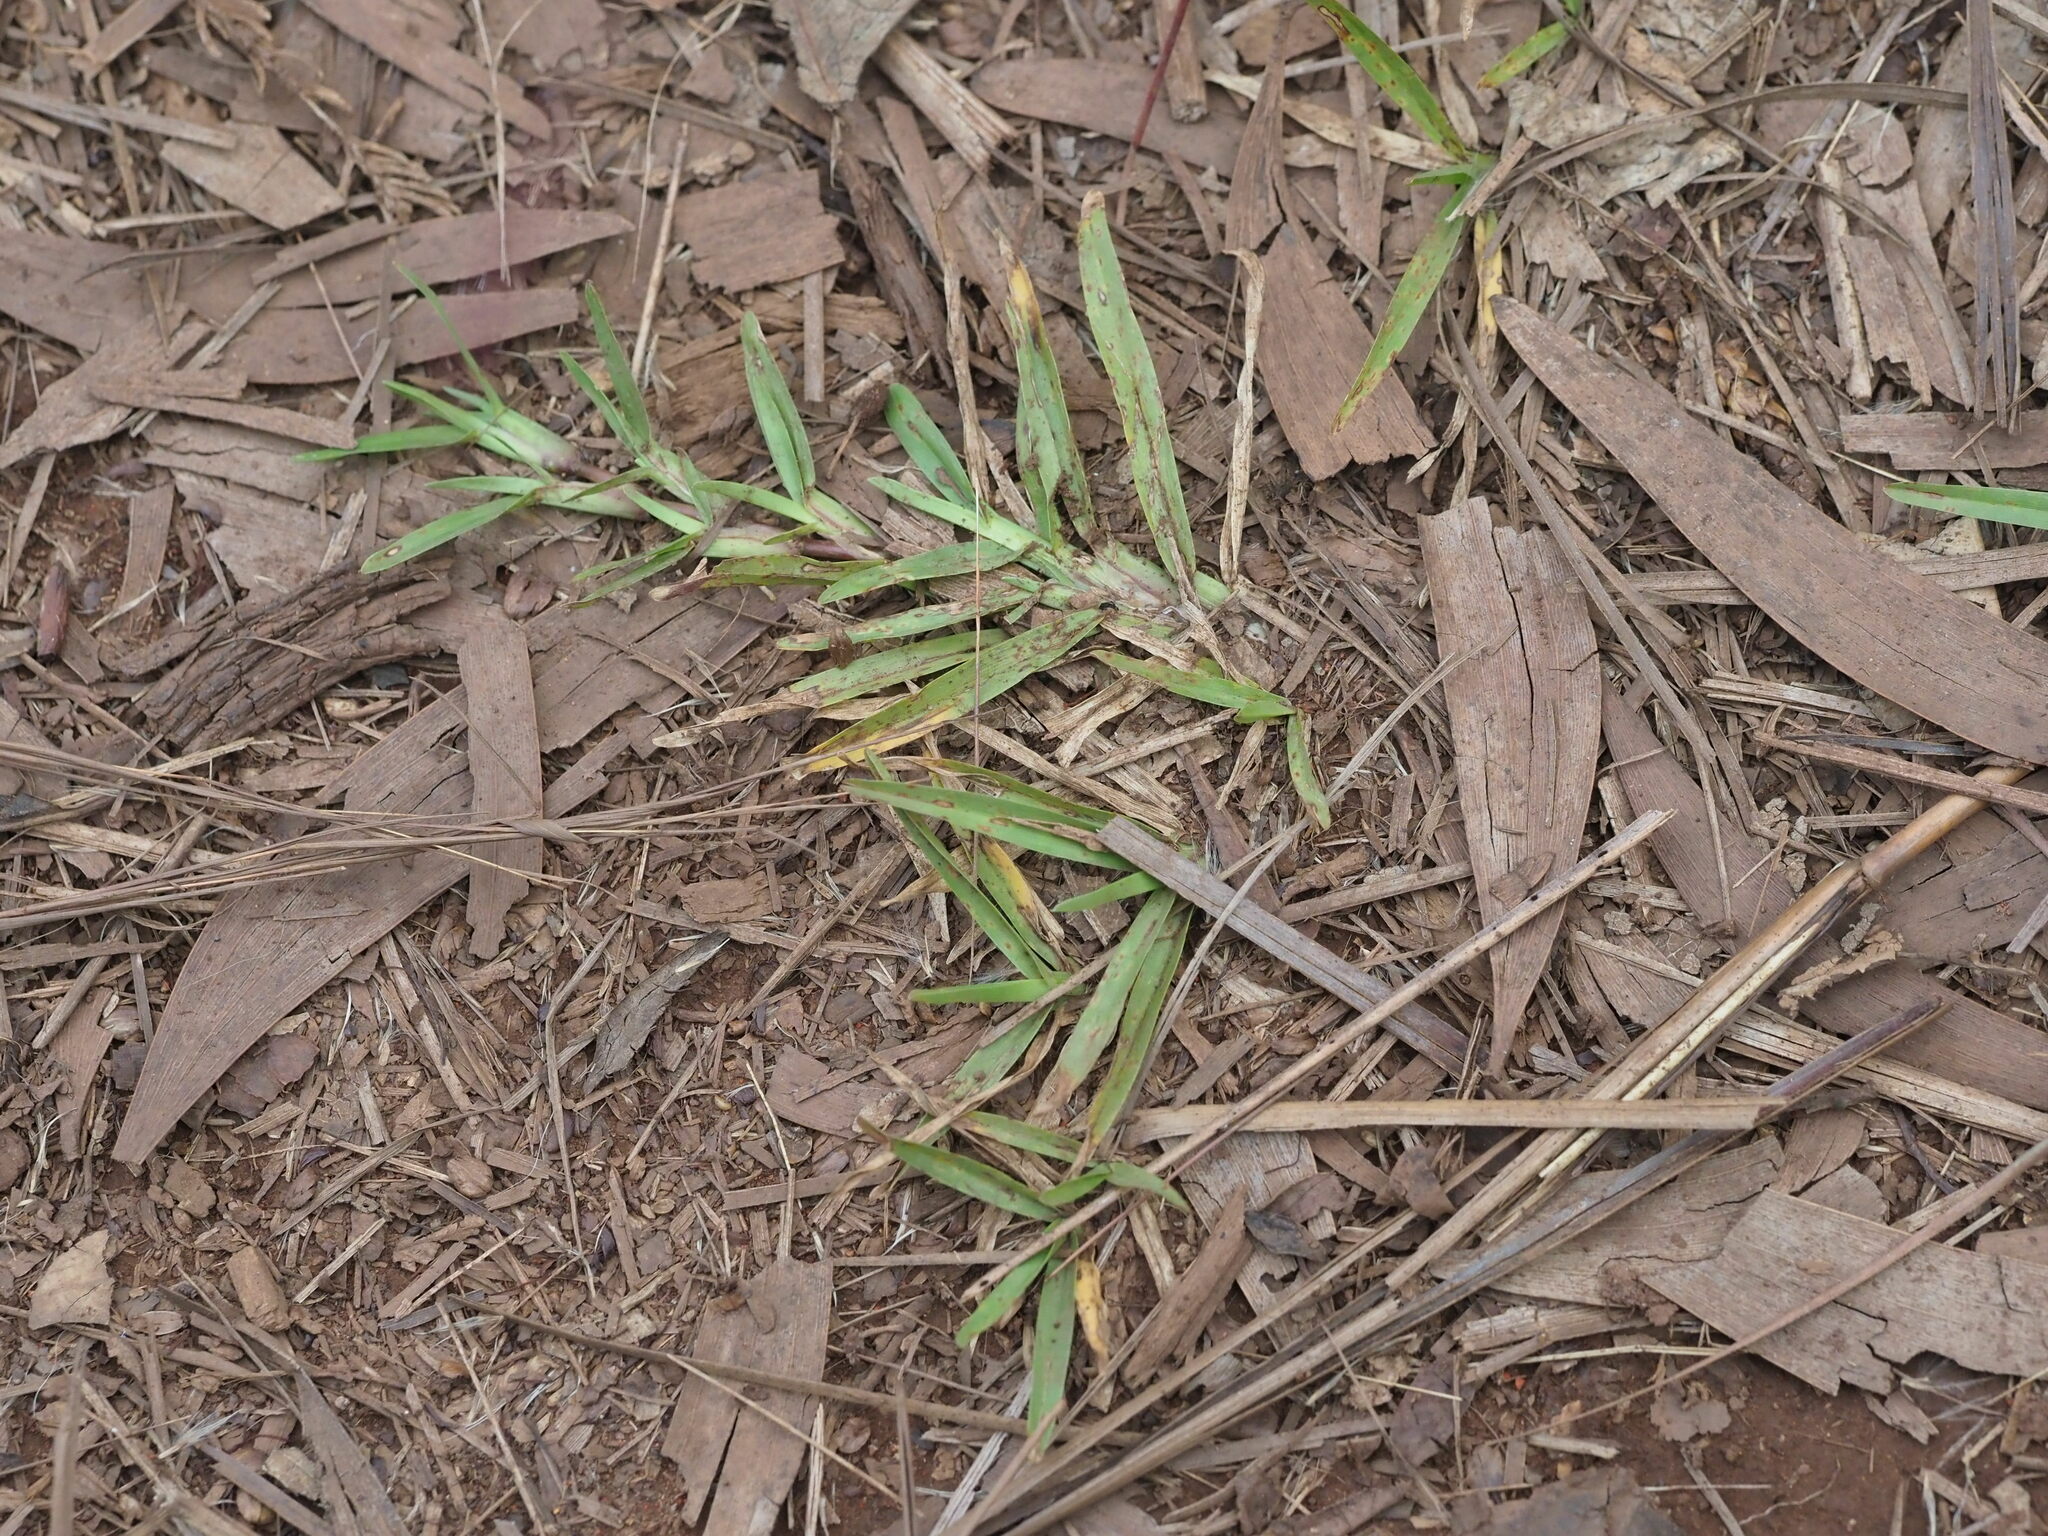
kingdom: Plantae
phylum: Tracheophyta
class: Liliopsida
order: Poales
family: Poaceae
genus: Axonopus
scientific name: Axonopus fissifolius
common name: Common carpetgrass
